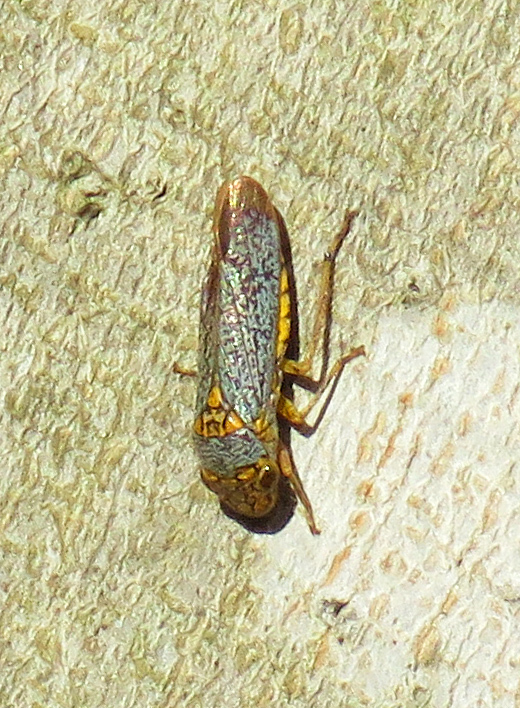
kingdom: Animalia
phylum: Arthropoda
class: Insecta
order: Hemiptera
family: Cicadellidae
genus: Oncometopia
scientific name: Oncometopia orbona
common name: Broad-headed sharpshooter
